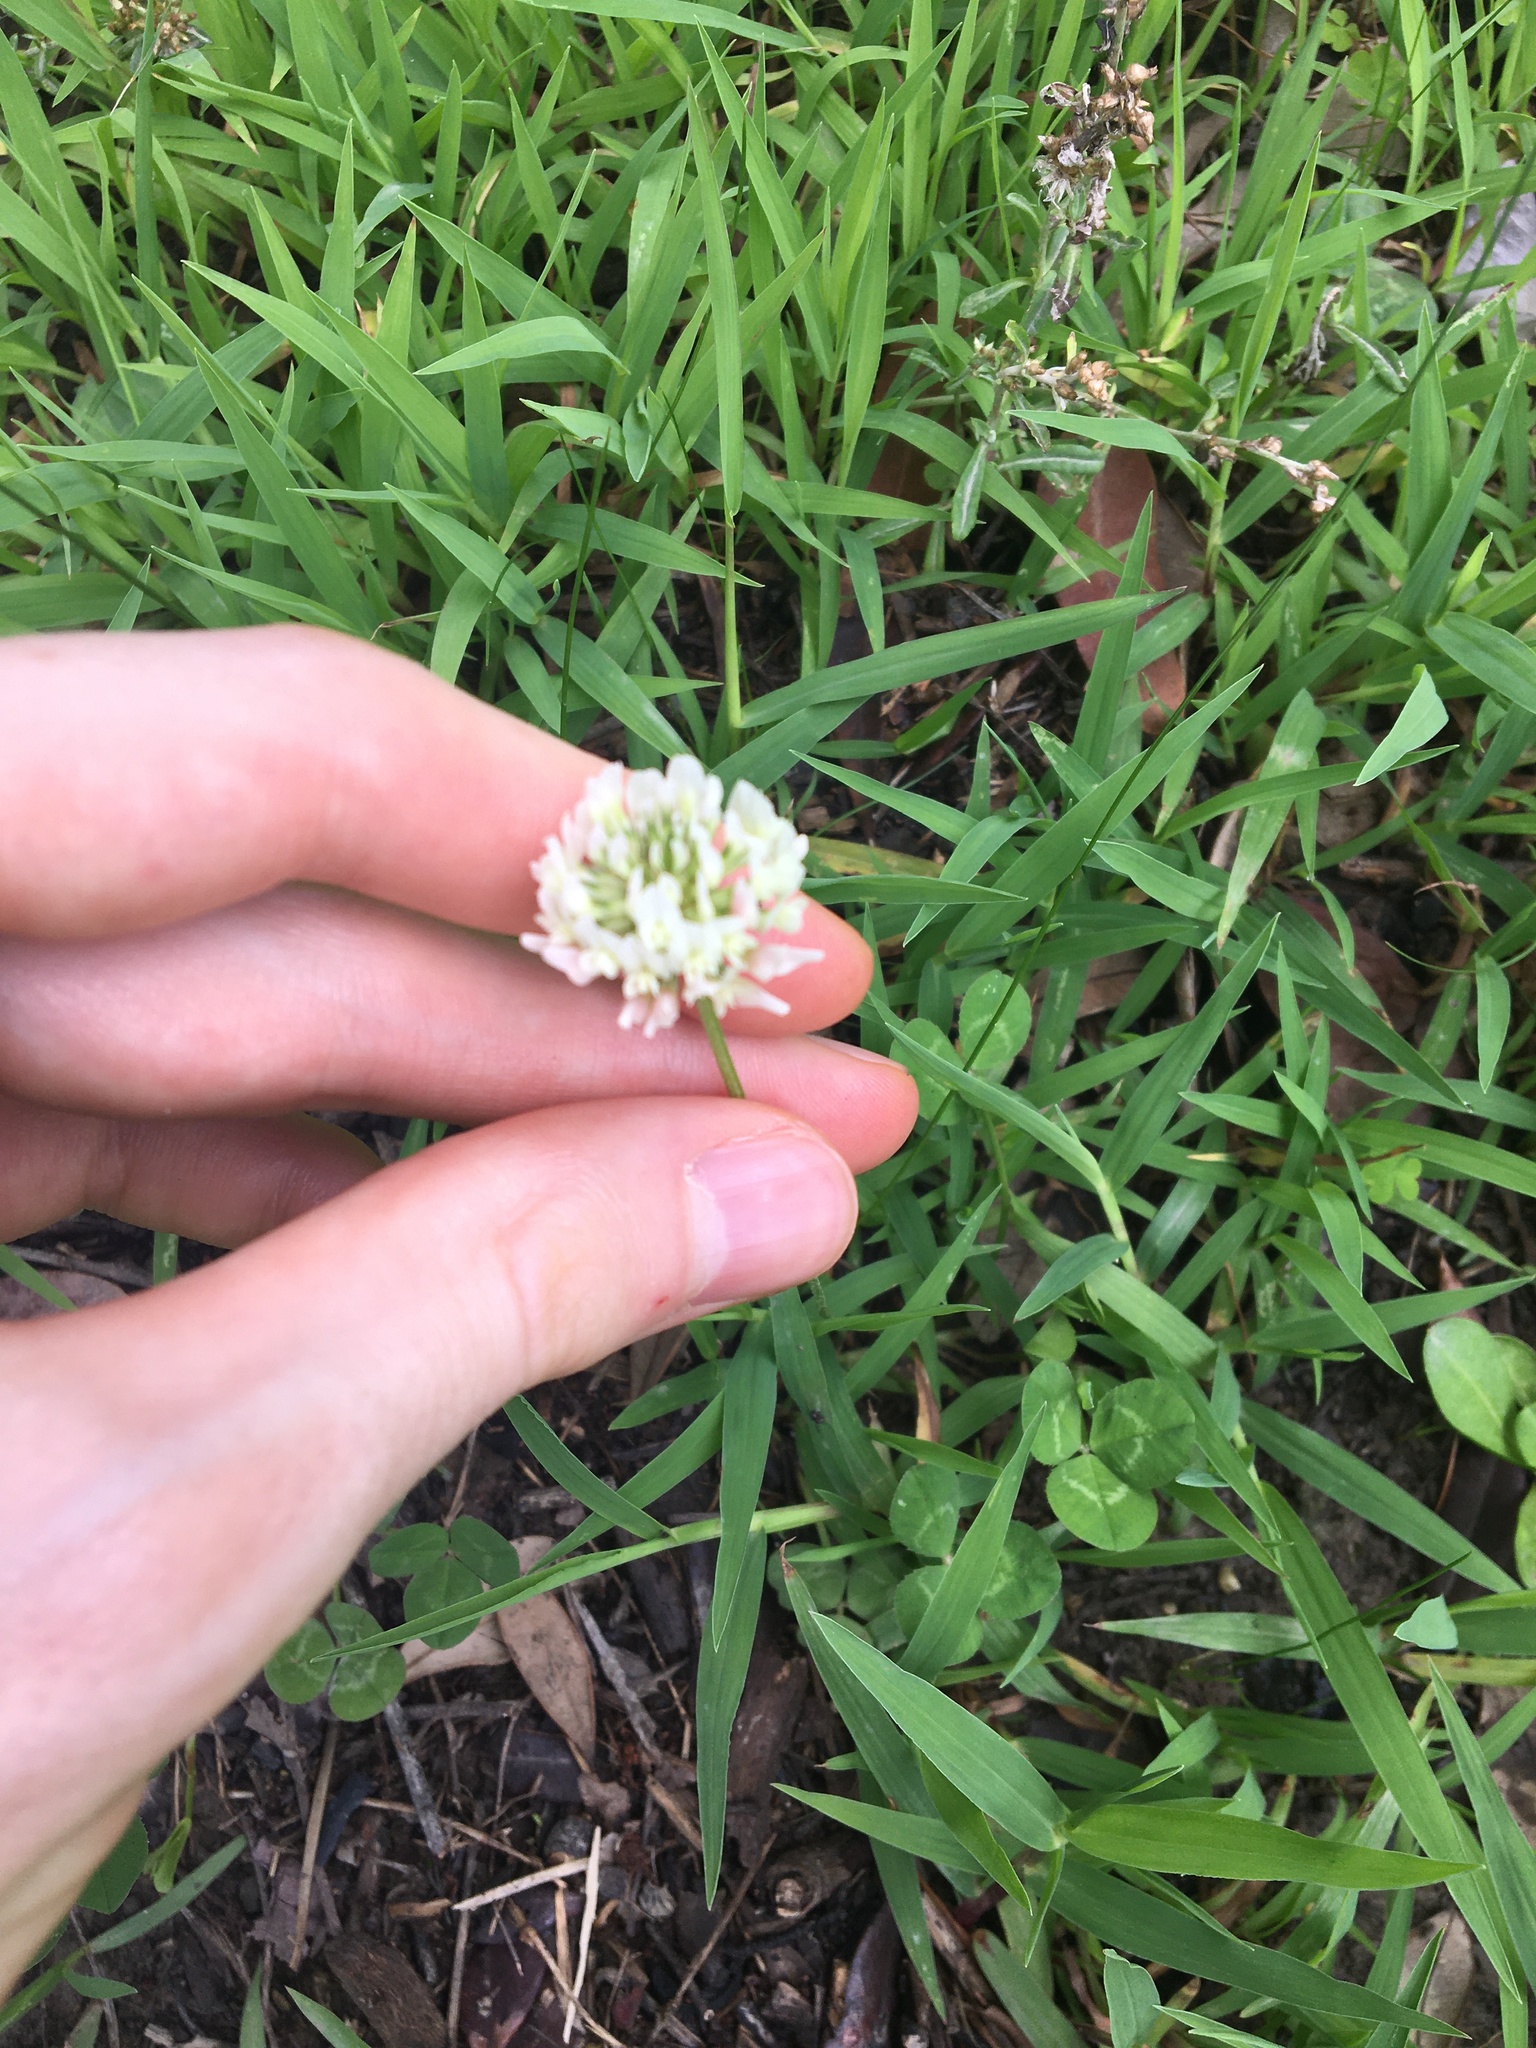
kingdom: Plantae
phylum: Tracheophyta
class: Magnoliopsida
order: Fabales
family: Fabaceae
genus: Trifolium
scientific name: Trifolium repens
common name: White clover
